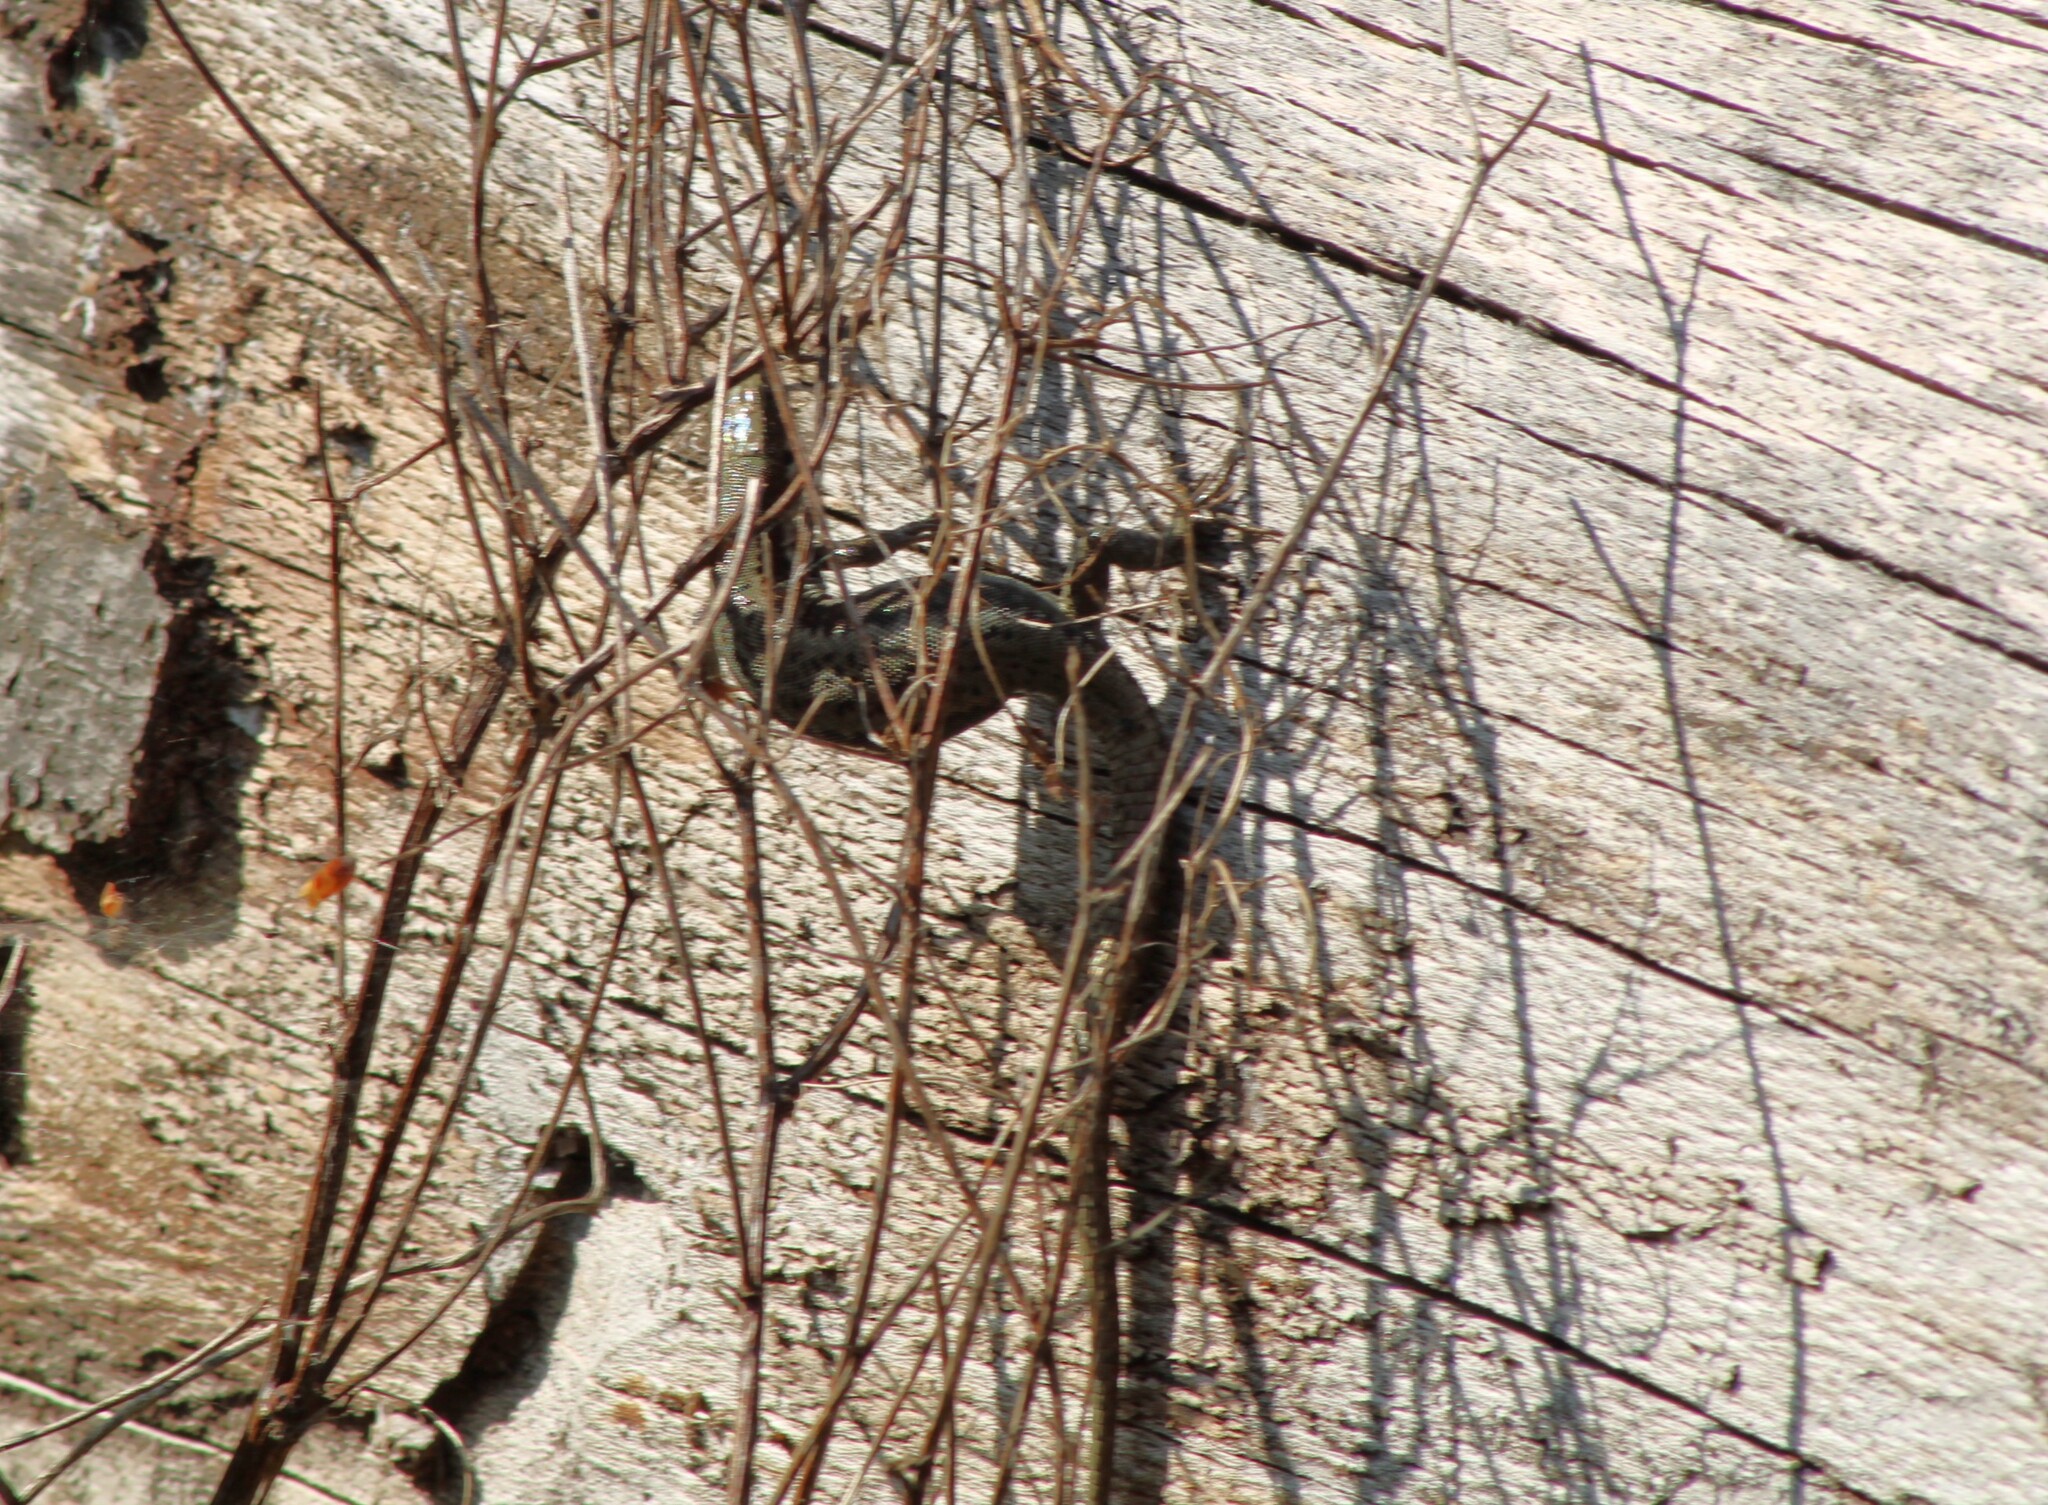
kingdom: Animalia
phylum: Chordata
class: Squamata
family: Lacertidae
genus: Podarcis
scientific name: Podarcis muralis
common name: Common wall lizard
